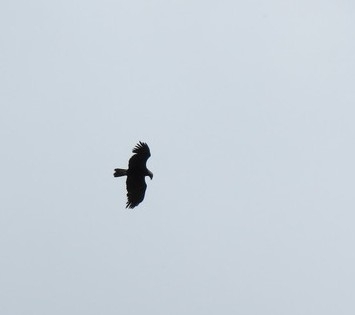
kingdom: Animalia
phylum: Chordata
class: Aves
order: Accipitriformes
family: Accipitridae
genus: Aquila
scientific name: Aquila heliaca
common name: Eastern imperial eagle
